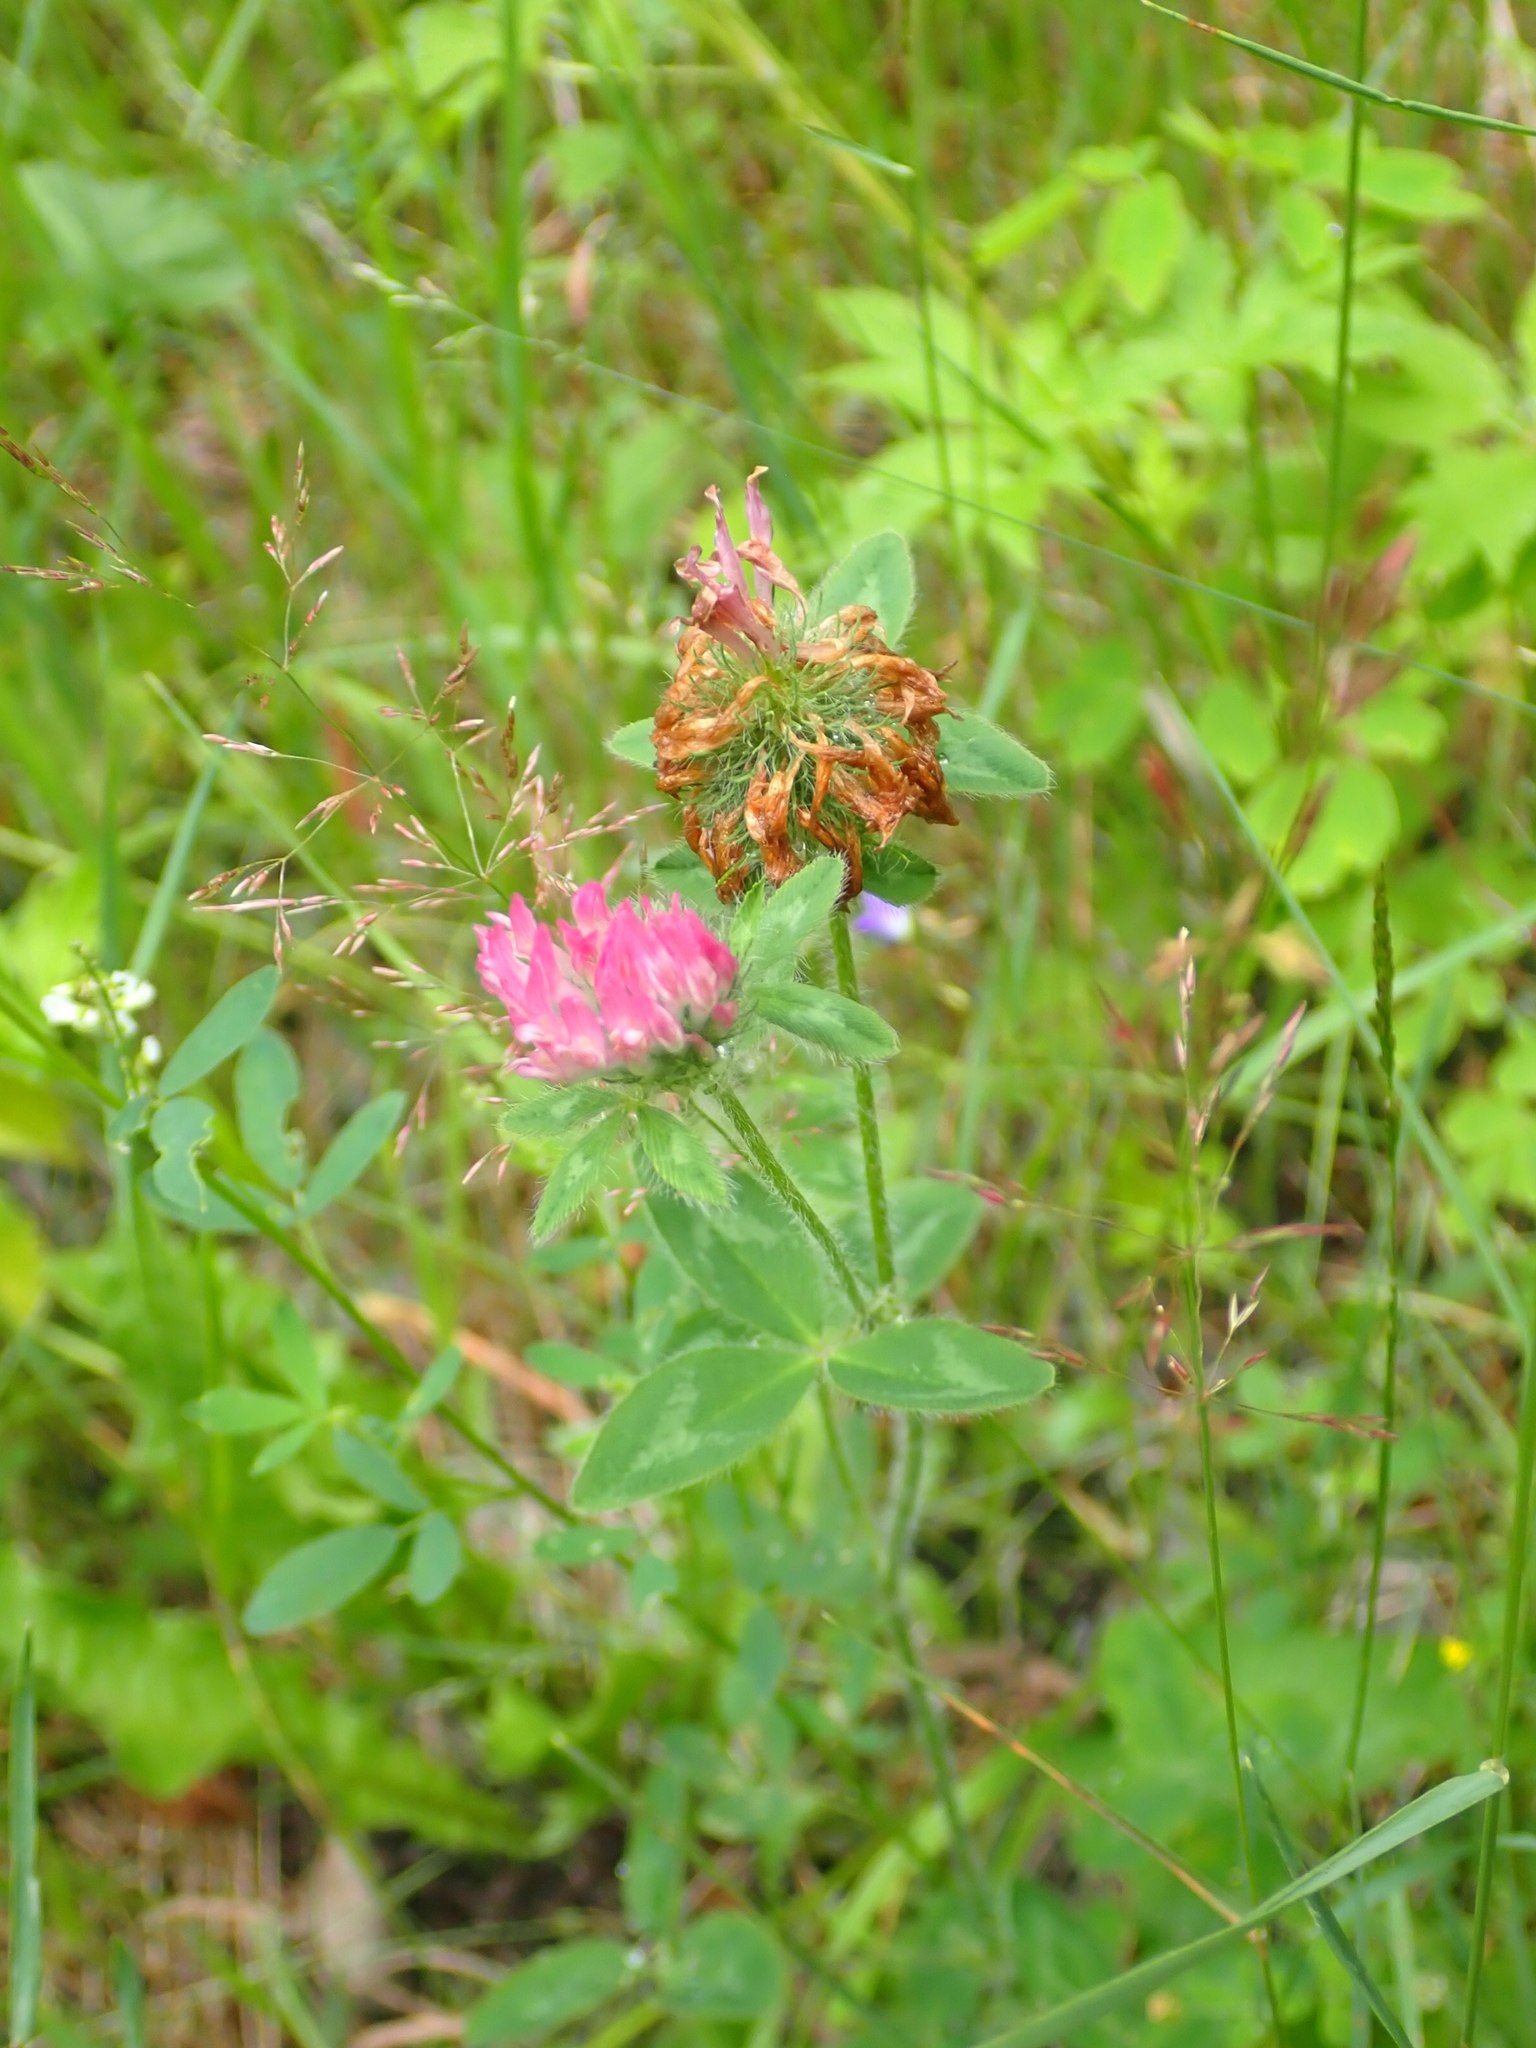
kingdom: Plantae
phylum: Tracheophyta
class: Magnoliopsida
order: Fabales
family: Fabaceae
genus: Trifolium
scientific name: Trifolium pratense
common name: Red clover
